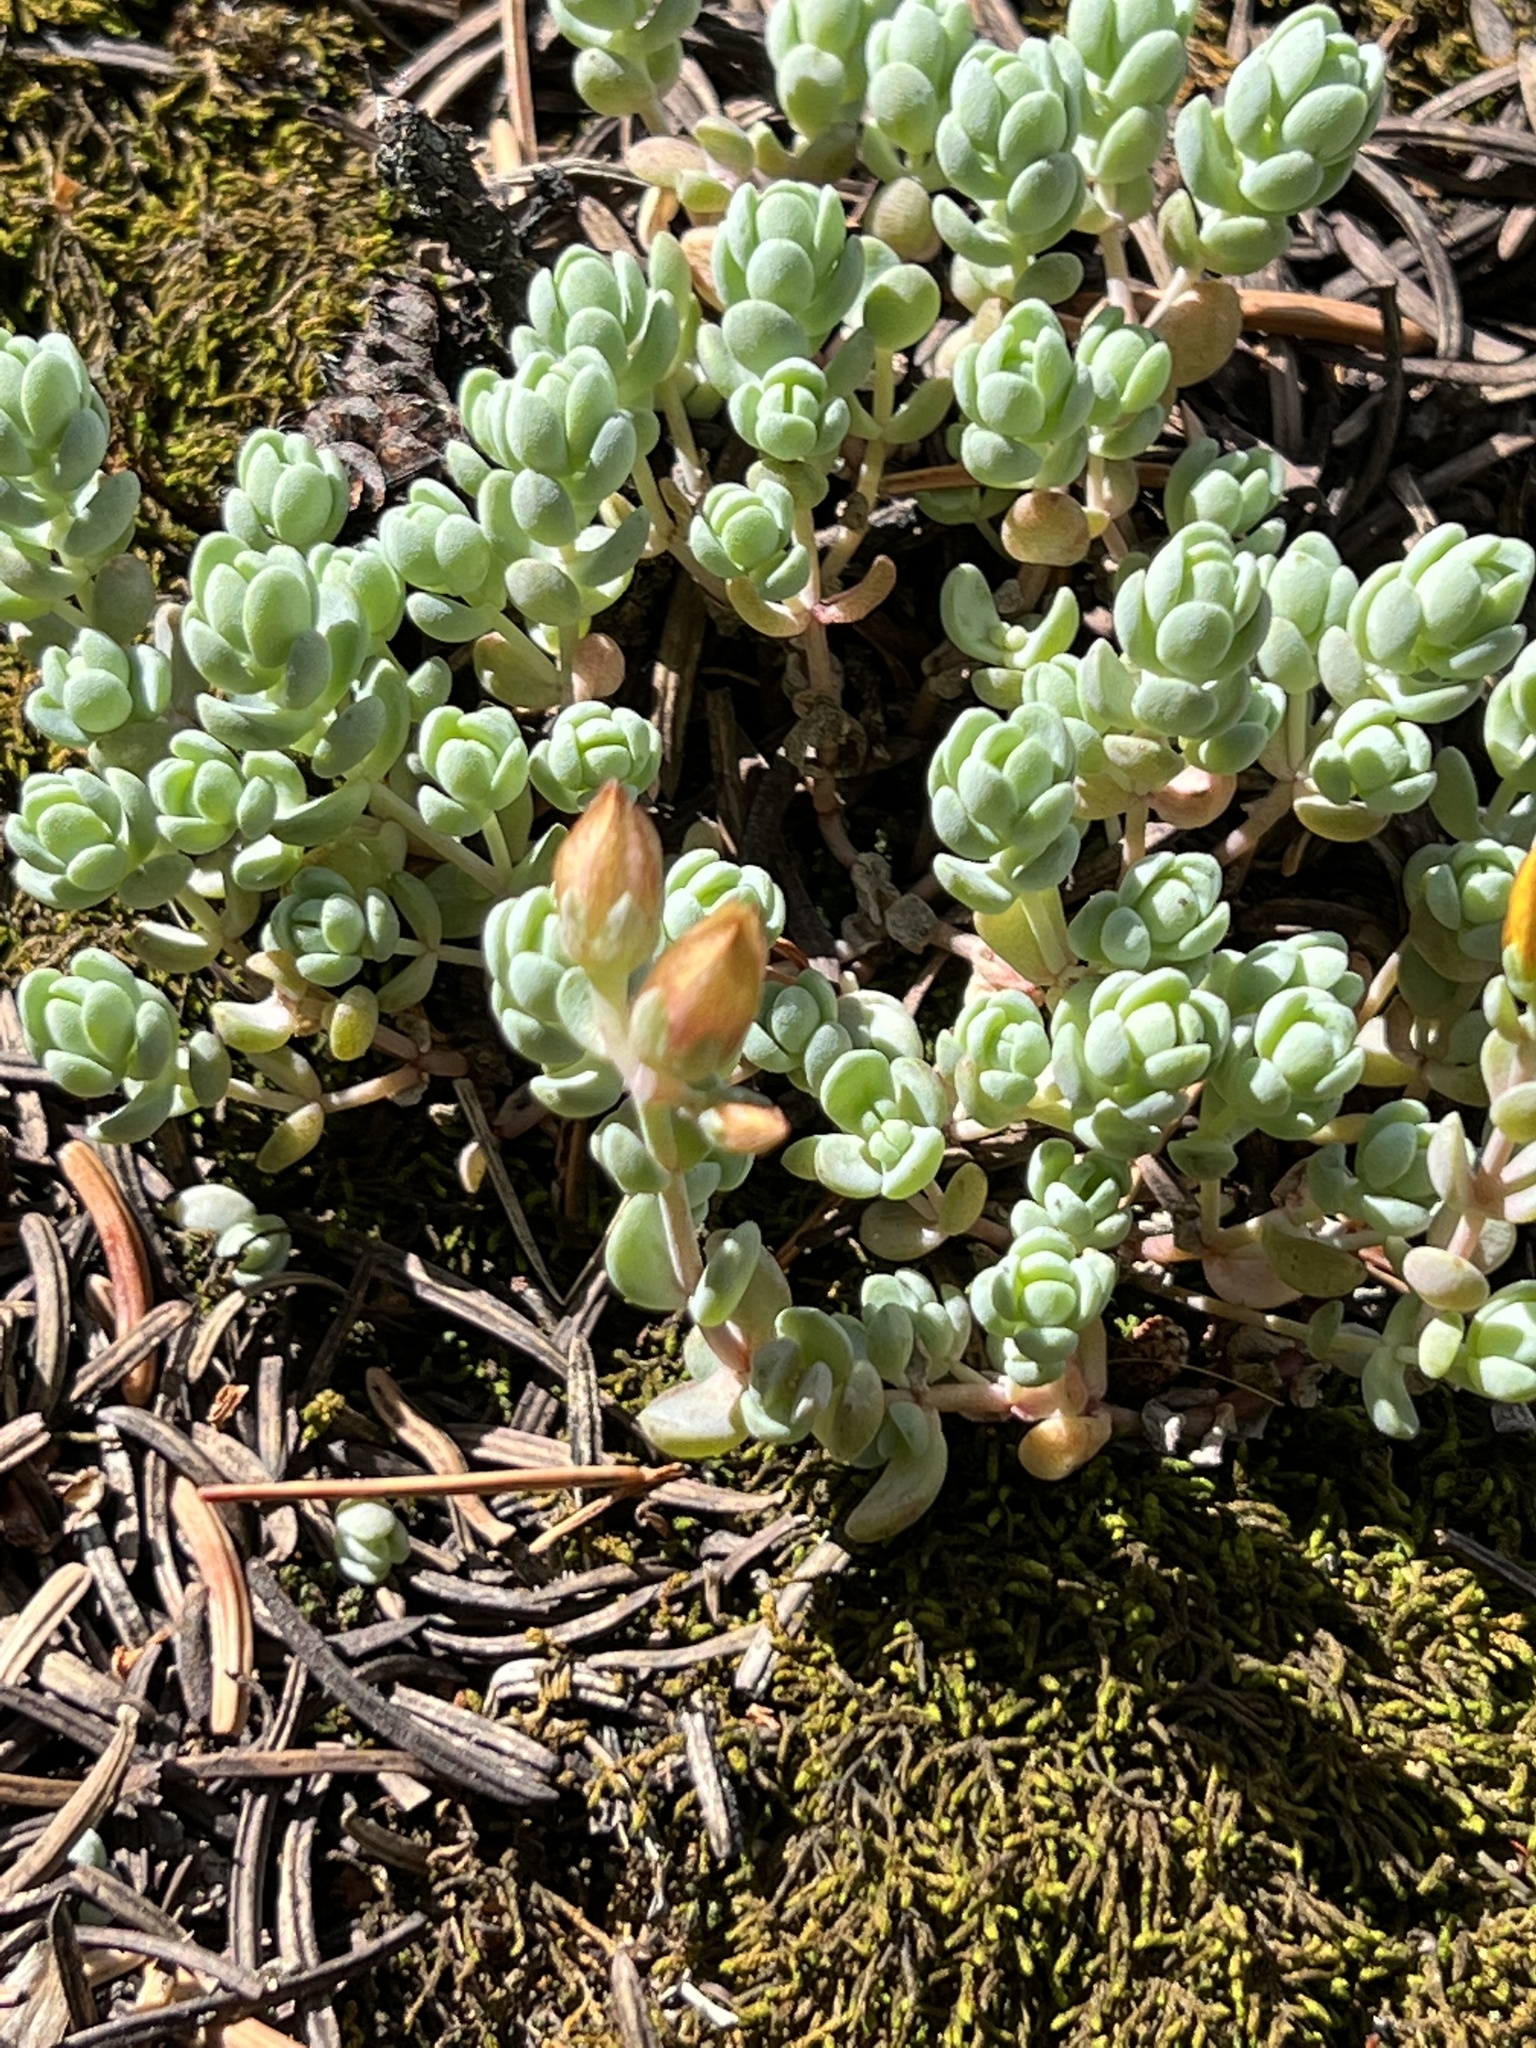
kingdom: Plantae
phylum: Tracheophyta
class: Magnoliopsida
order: Saxifragales
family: Crassulaceae
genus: Sedum
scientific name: Sedum debile
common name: Weak-stem stonecrop
